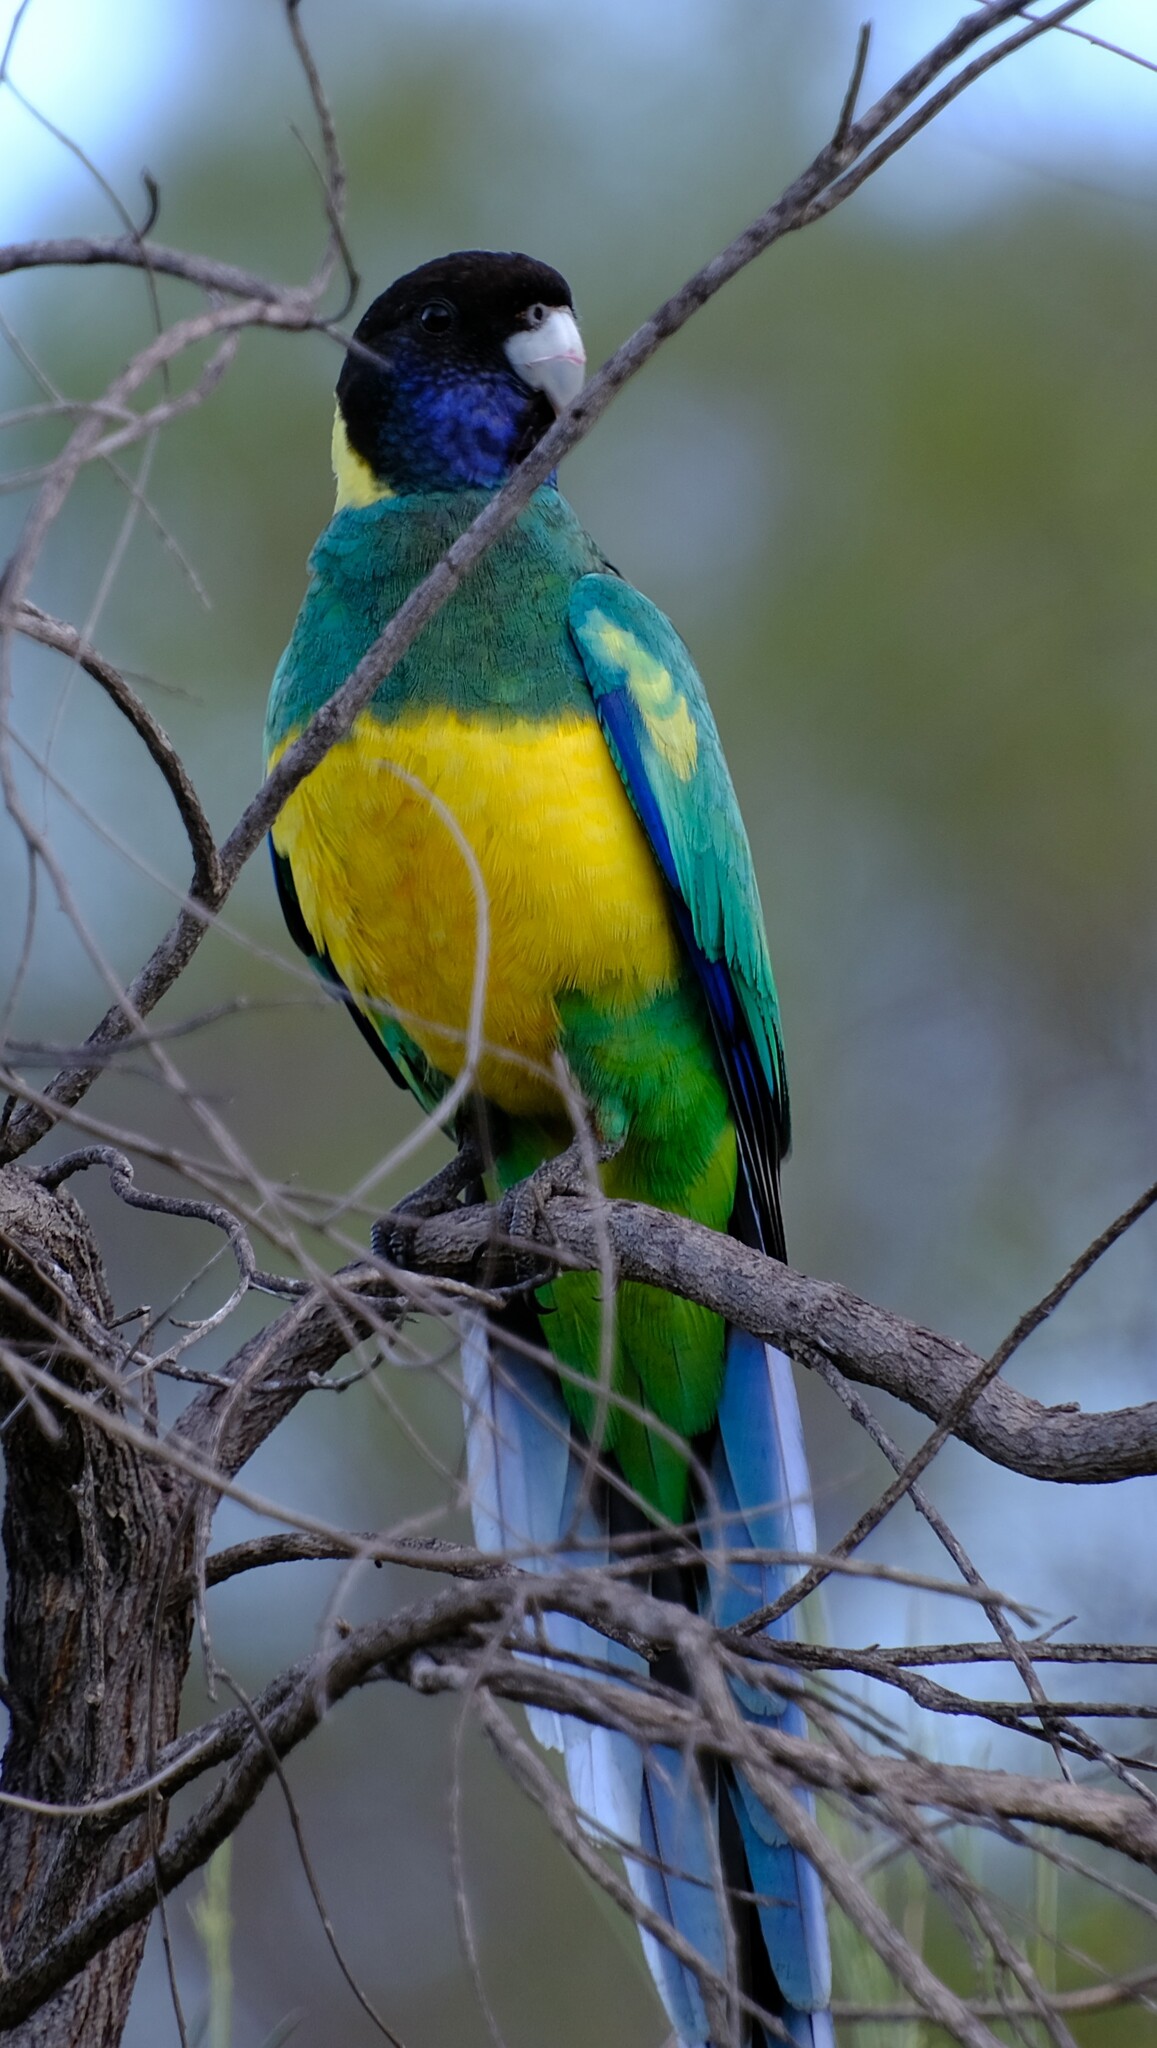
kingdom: Animalia
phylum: Chordata
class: Aves
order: Psittaciformes
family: Psittacidae
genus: Barnardius
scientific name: Barnardius zonarius
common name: Australian ringneck
